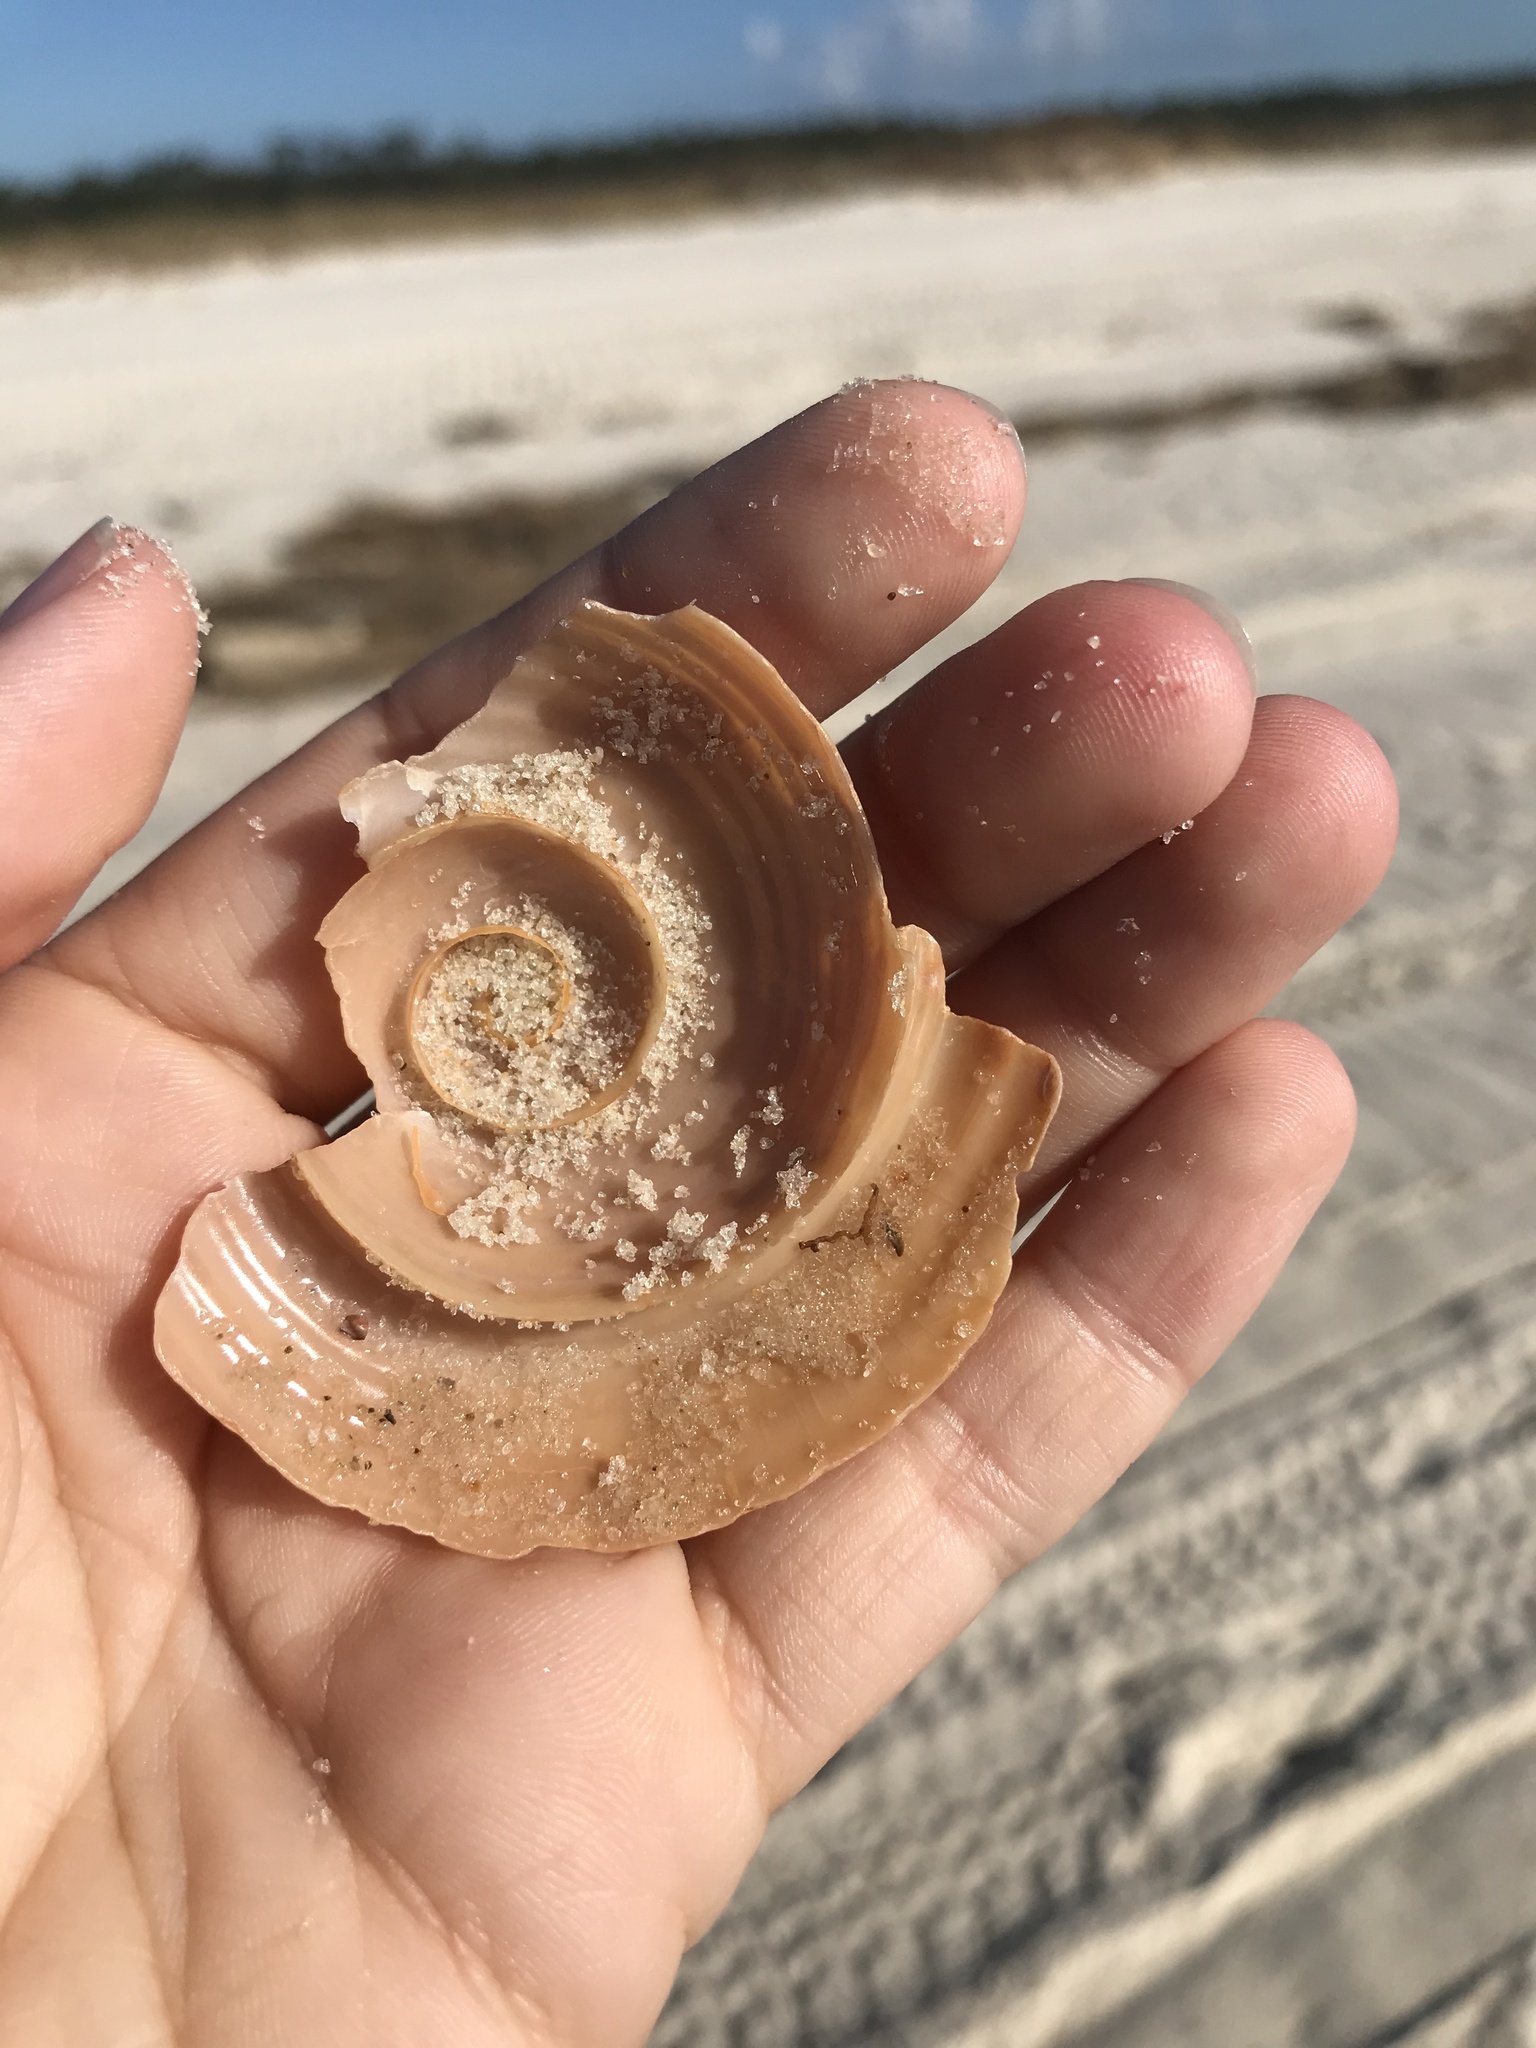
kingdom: Animalia
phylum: Mollusca
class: Gastropoda
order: Littorinimorpha
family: Tonnidae
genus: Tonna
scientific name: Tonna galea
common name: Giant tun
